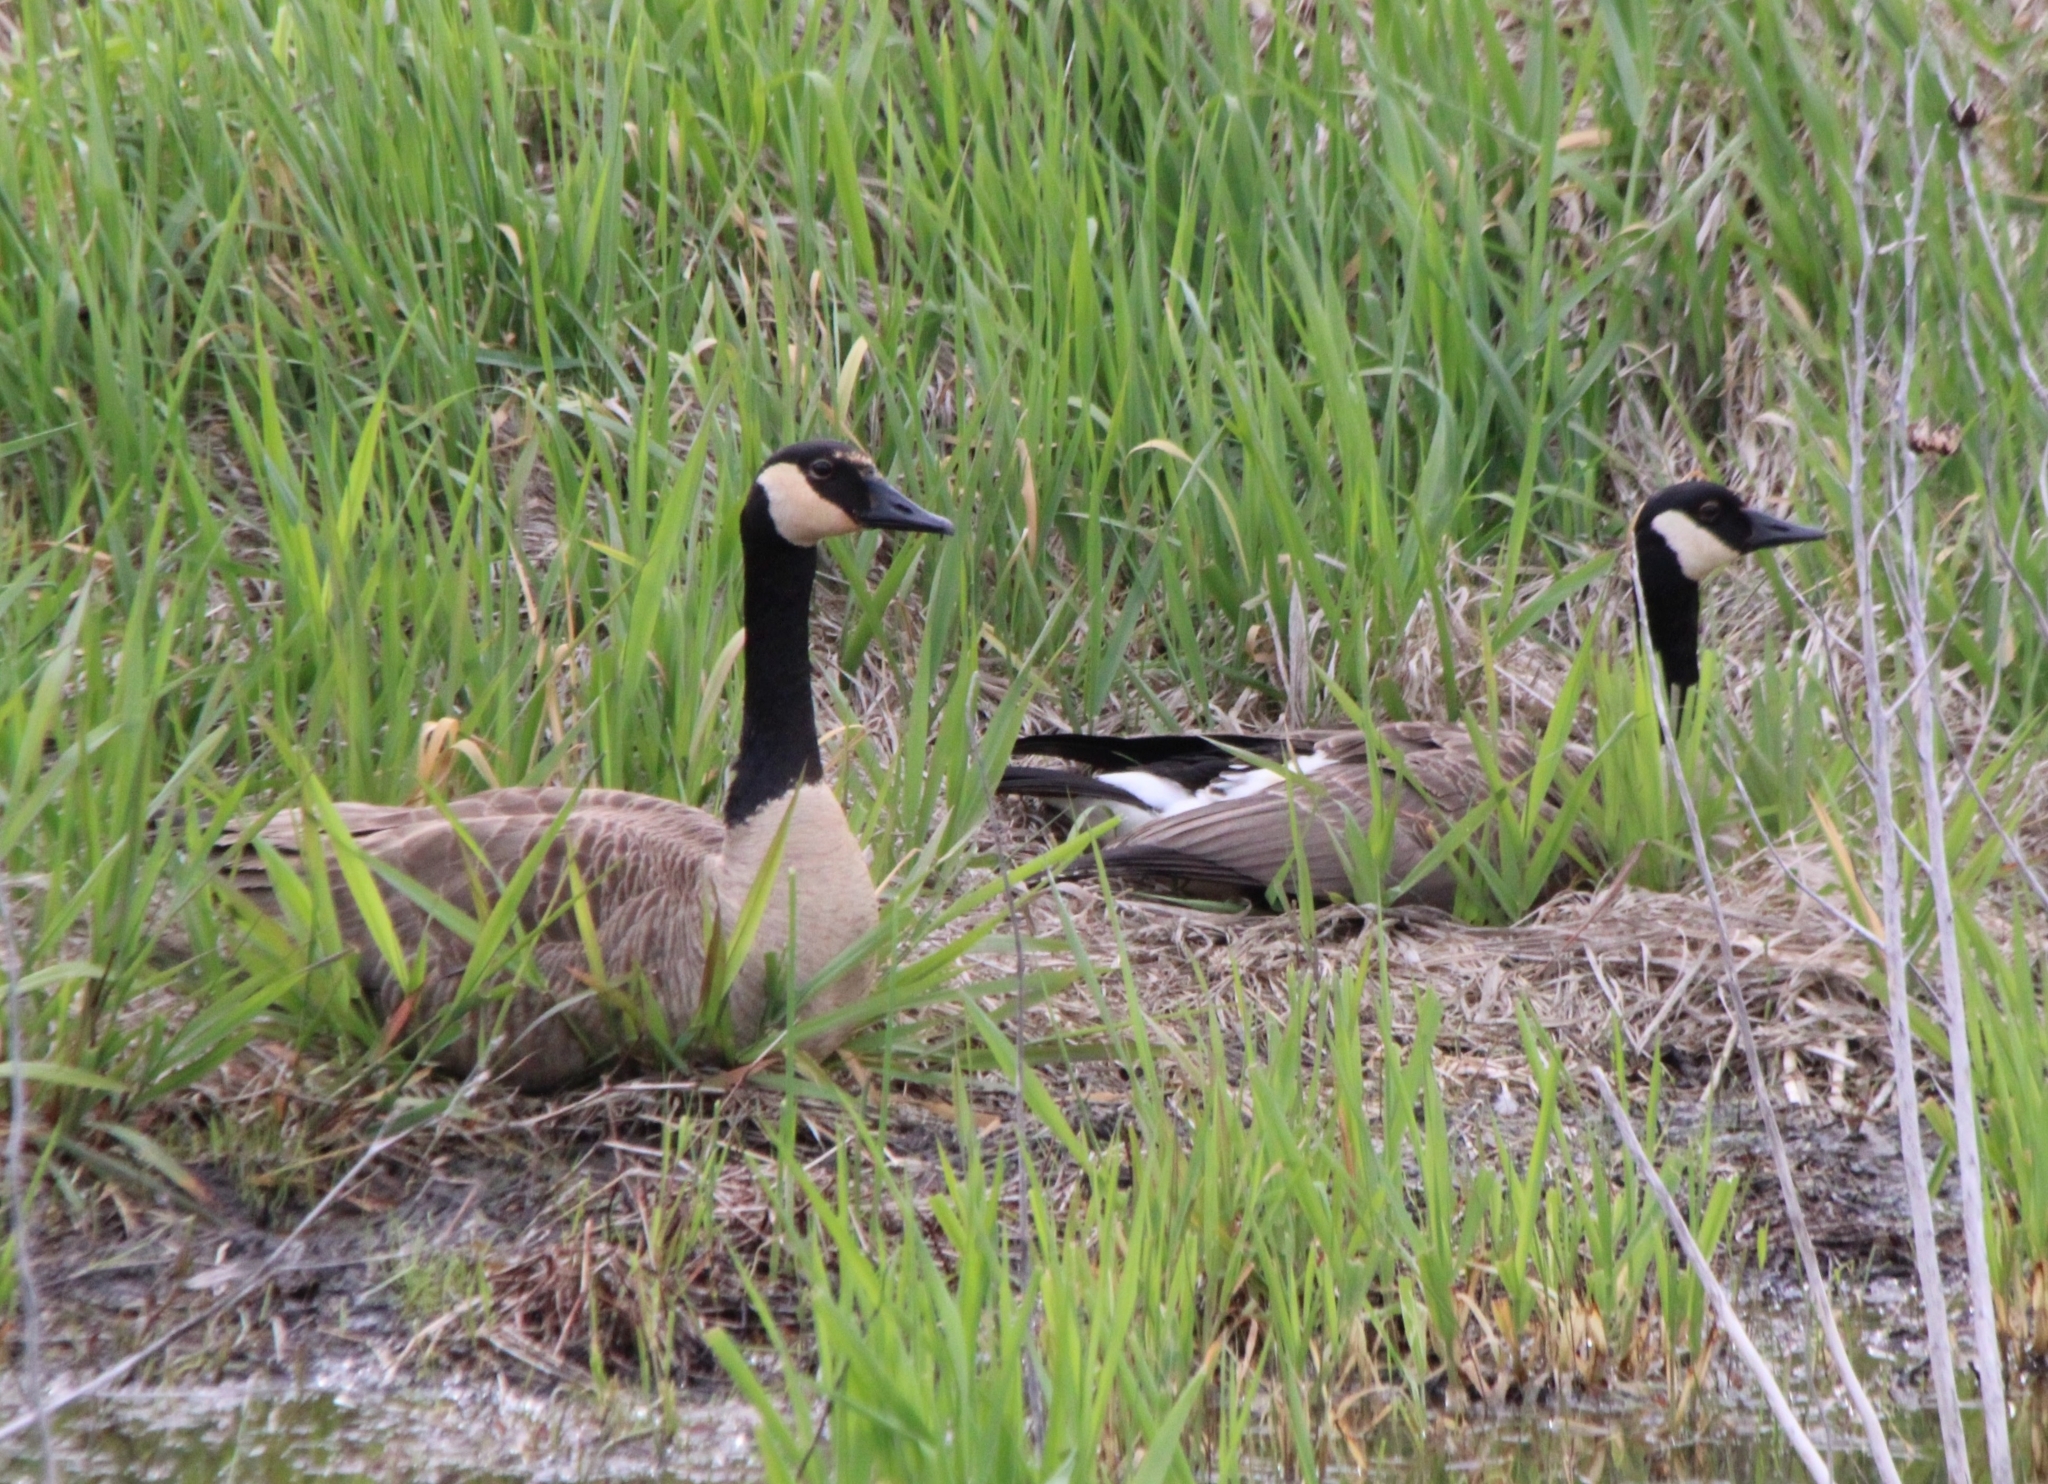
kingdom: Animalia
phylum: Chordata
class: Aves
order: Anseriformes
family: Anatidae
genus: Branta
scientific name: Branta canadensis
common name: Canada goose
